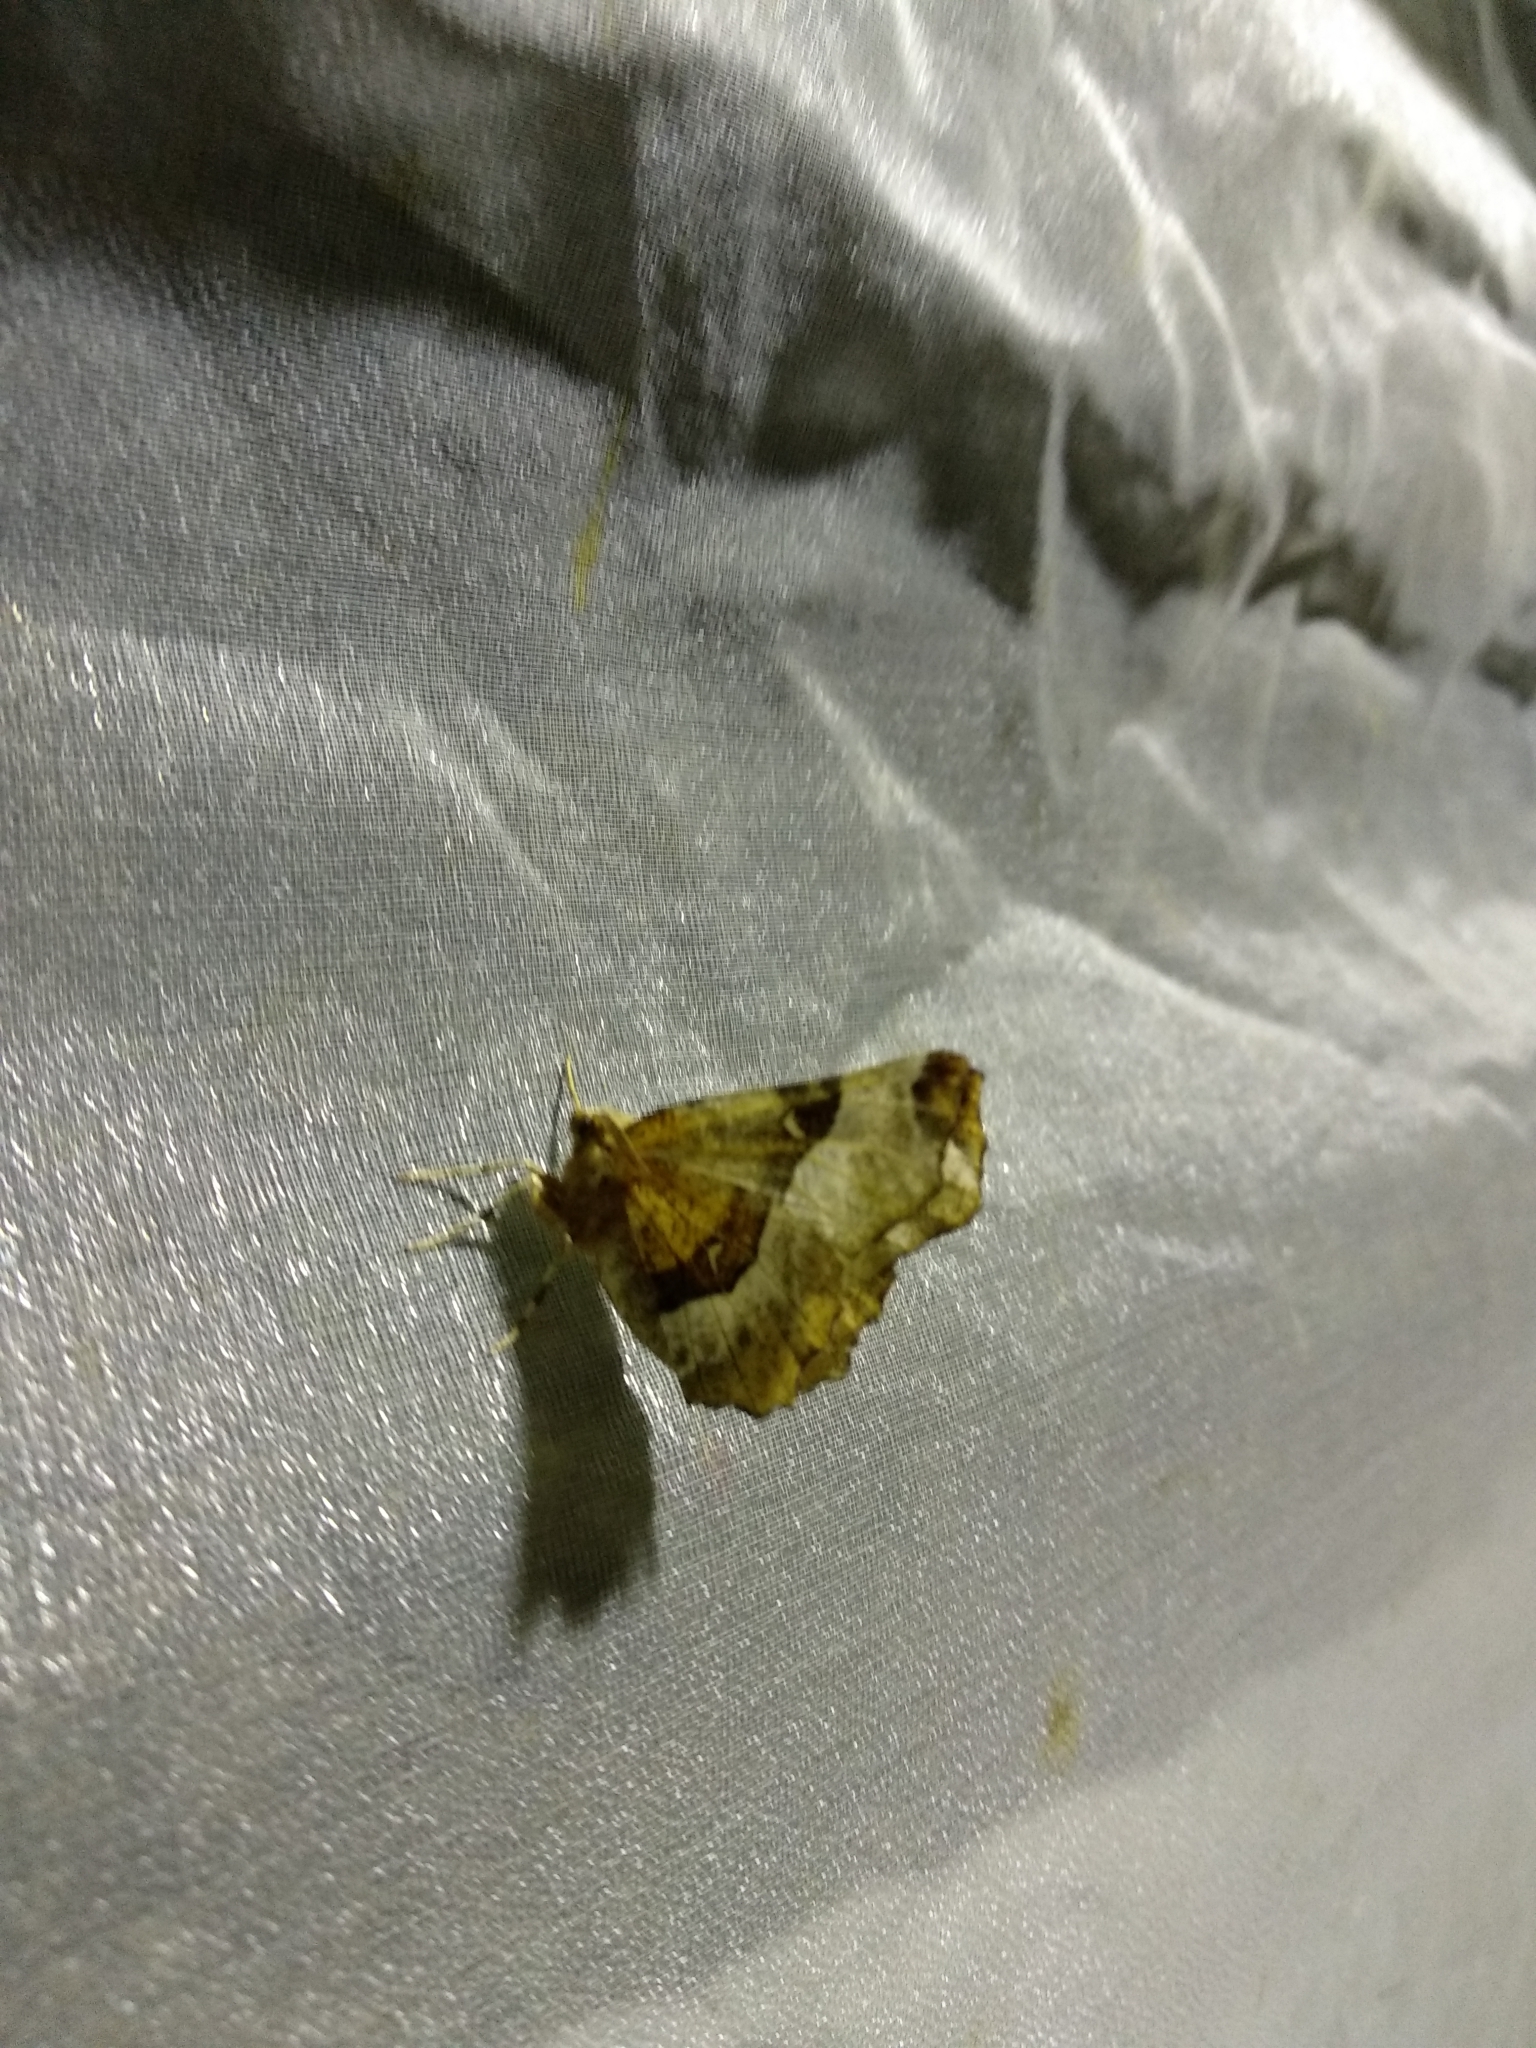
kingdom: Animalia
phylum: Arthropoda
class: Insecta
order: Lepidoptera
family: Geometridae
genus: Selenia
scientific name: Selenia tetralunaria
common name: Purple thorn
